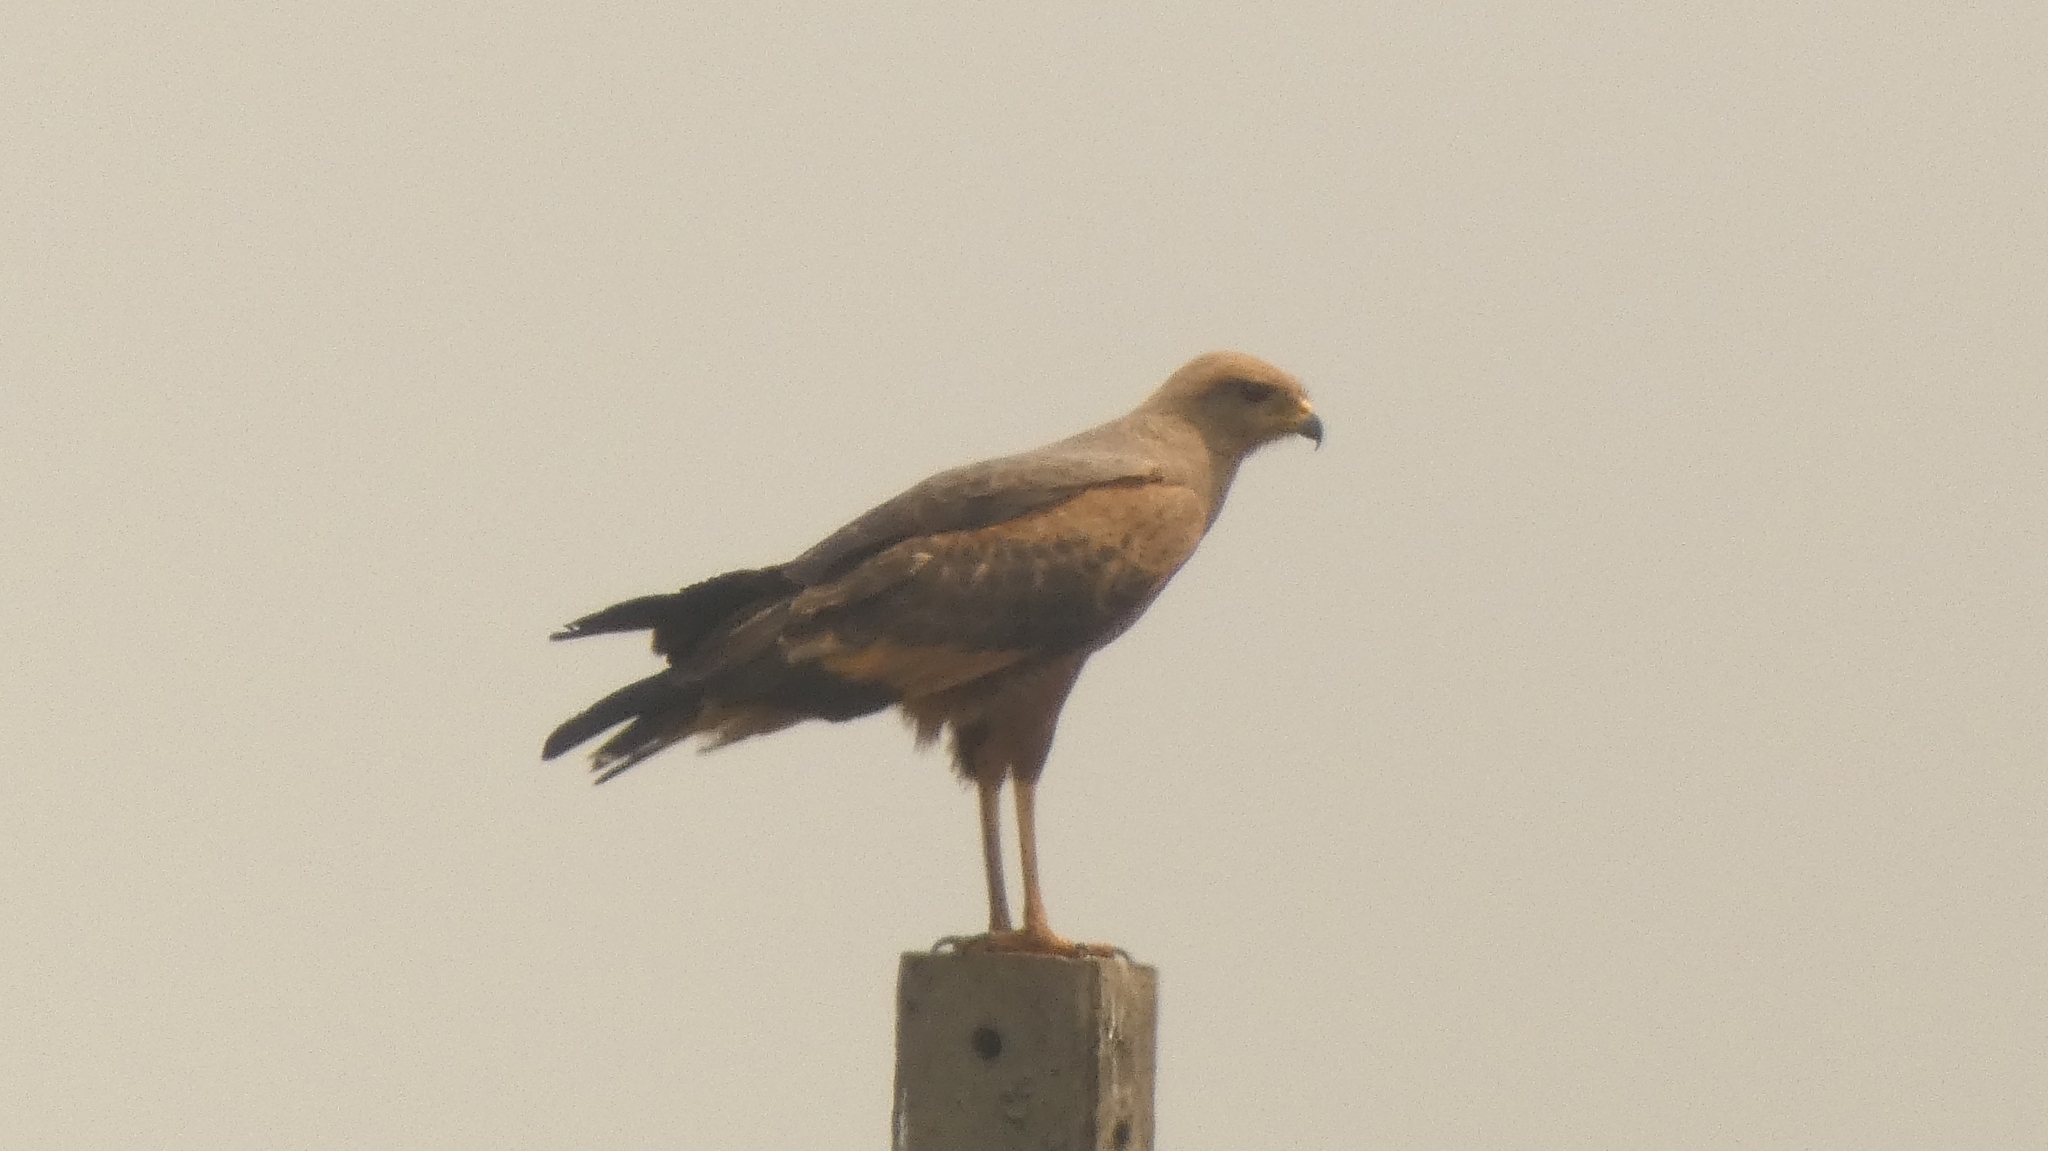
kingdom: Animalia
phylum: Chordata
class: Aves
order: Accipitriformes
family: Accipitridae
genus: Buteogallus
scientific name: Buteogallus meridionalis
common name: Savanna hawk
